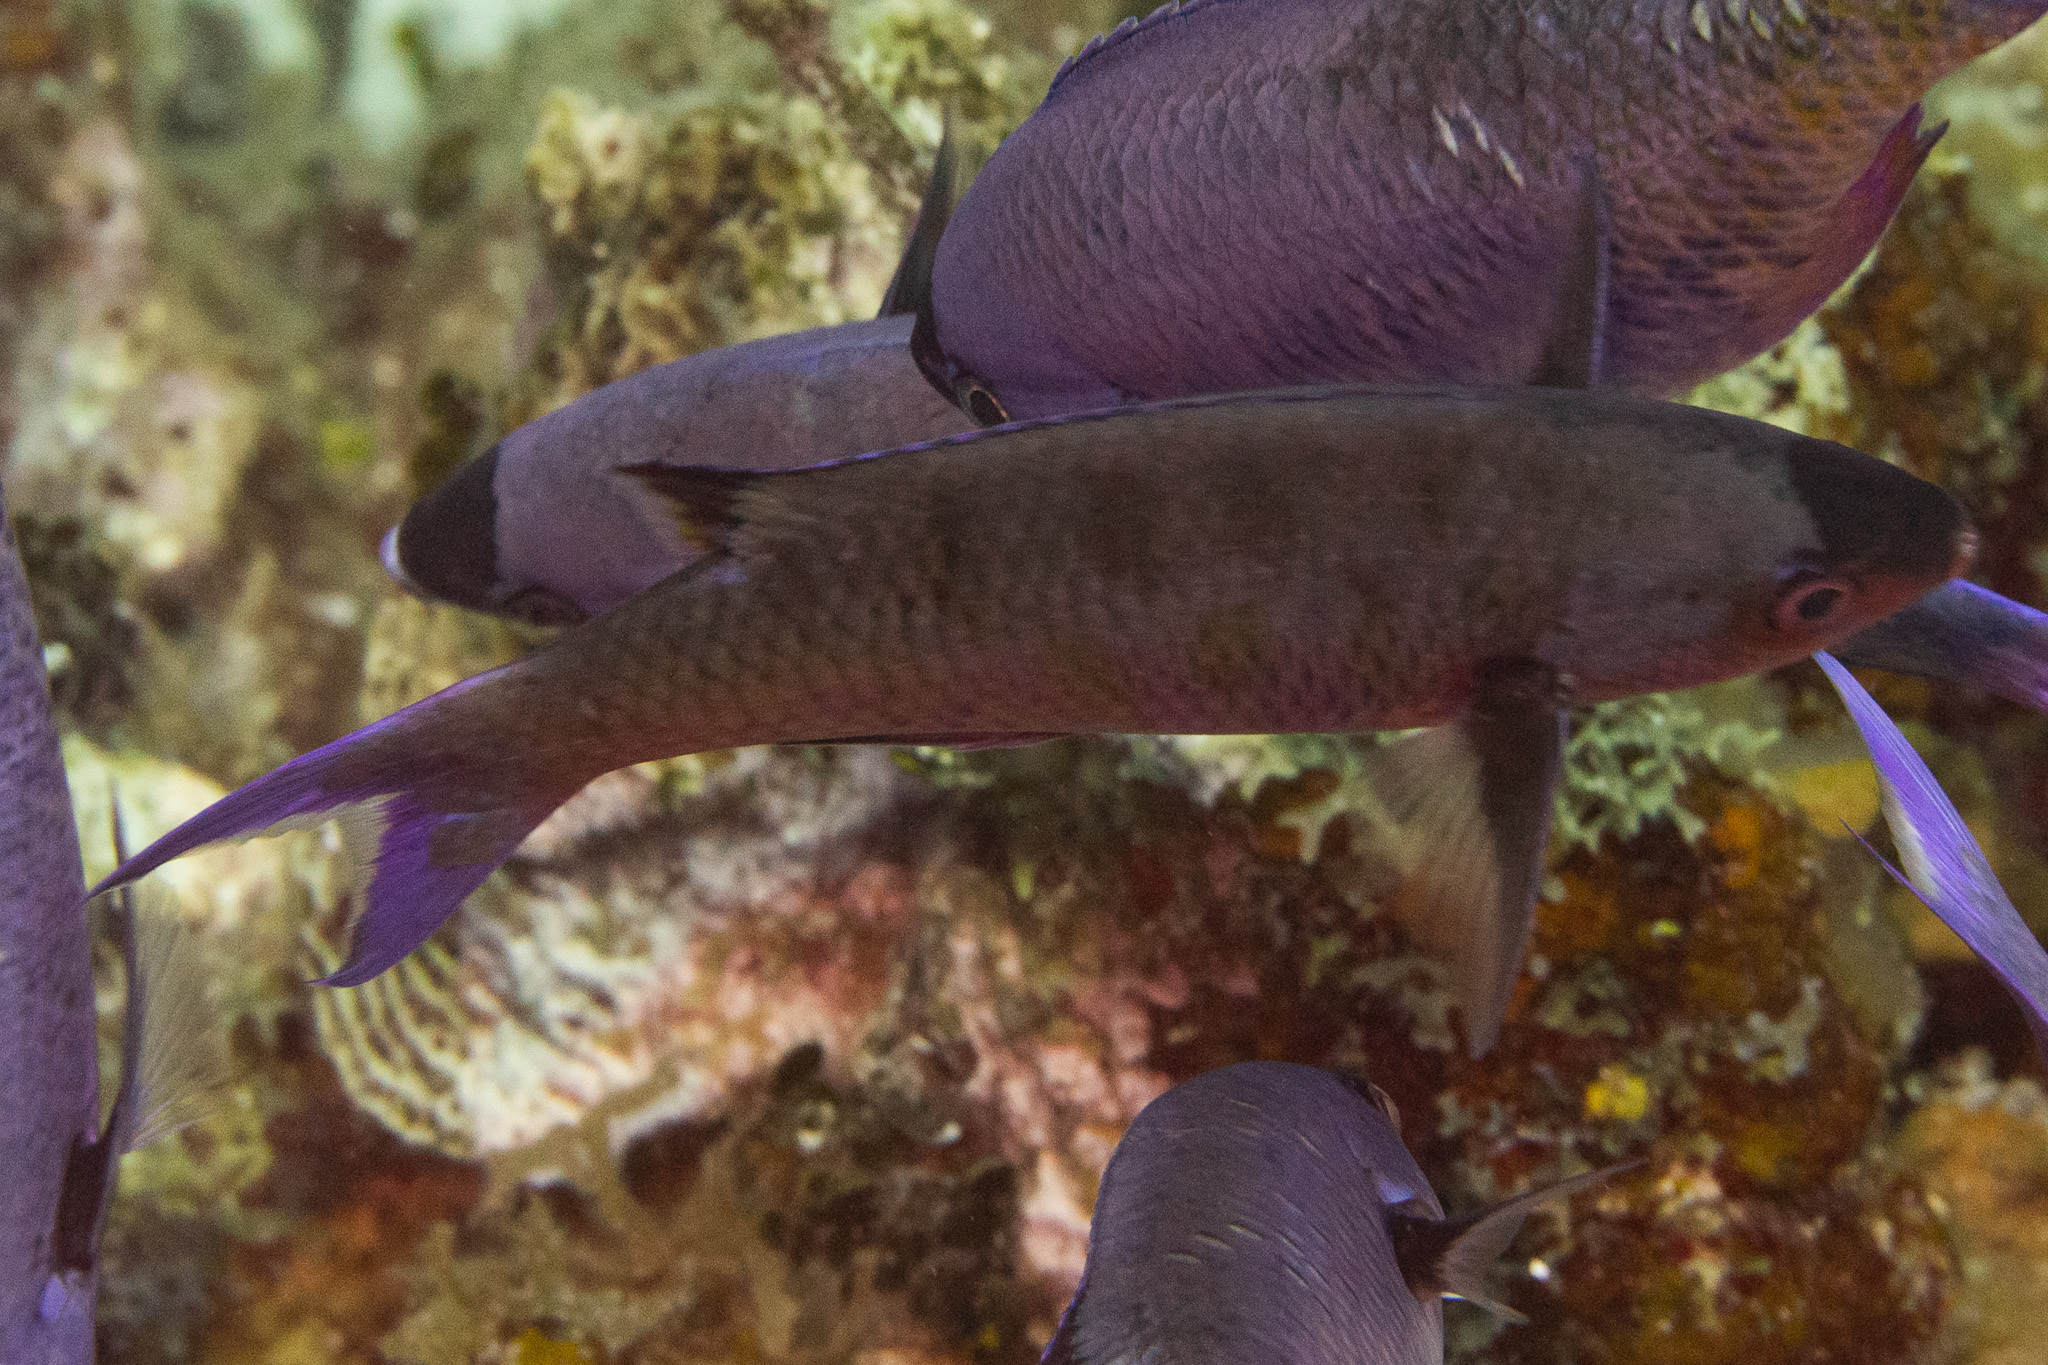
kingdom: Animalia
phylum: Chordata
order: Perciformes
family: Labridae
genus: Bodianus
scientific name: Bodianus
